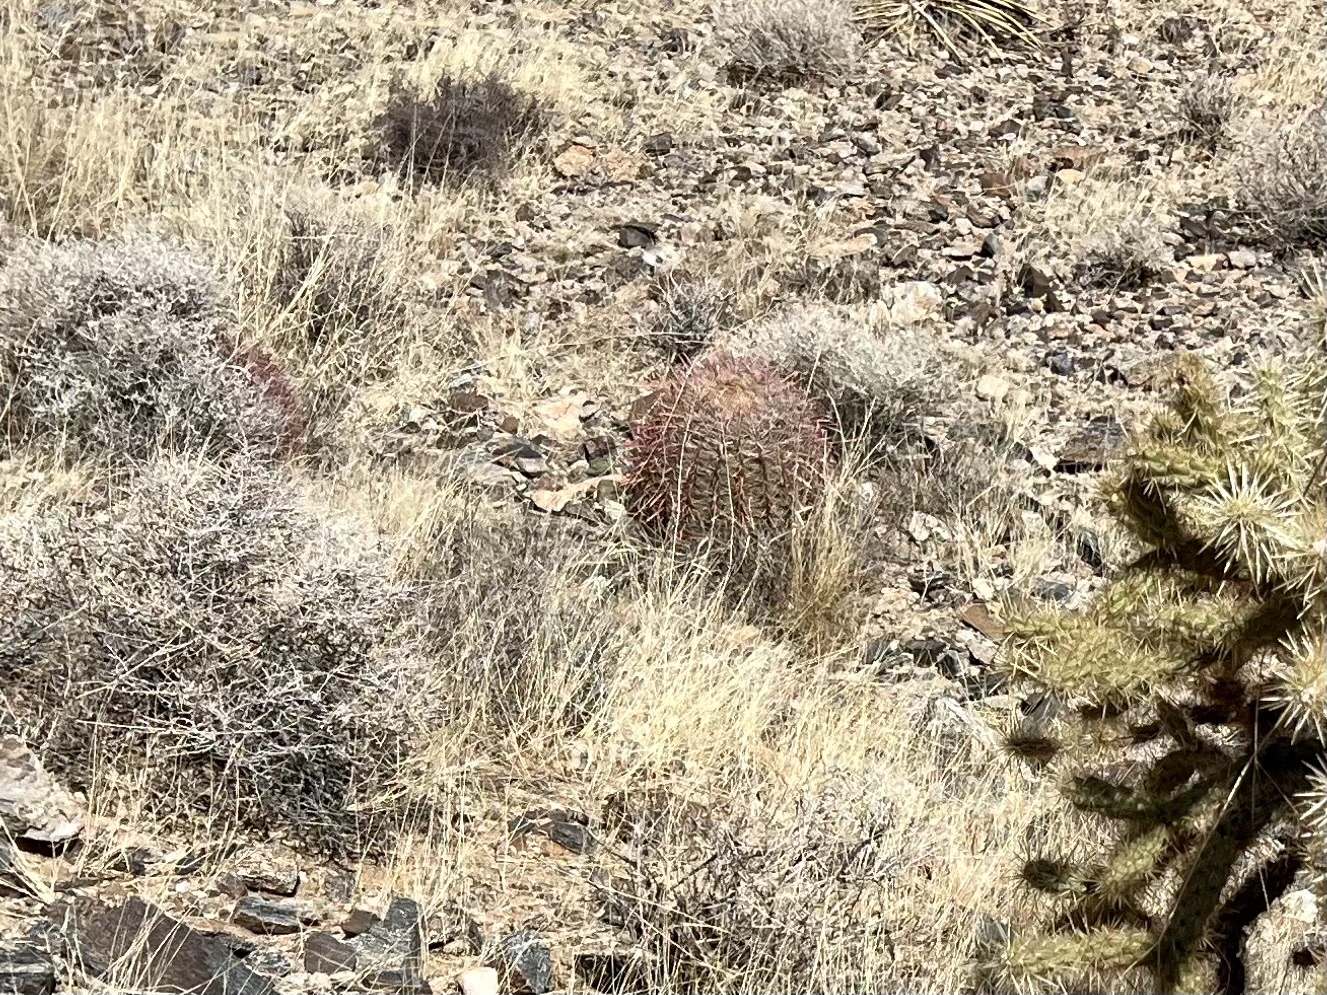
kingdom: Plantae
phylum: Tracheophyta
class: Magnoliopsida
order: Caryophyllales
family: Cactaceae
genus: Ferocactus
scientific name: Ferocactus cylindraceus
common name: California barrel cactus
